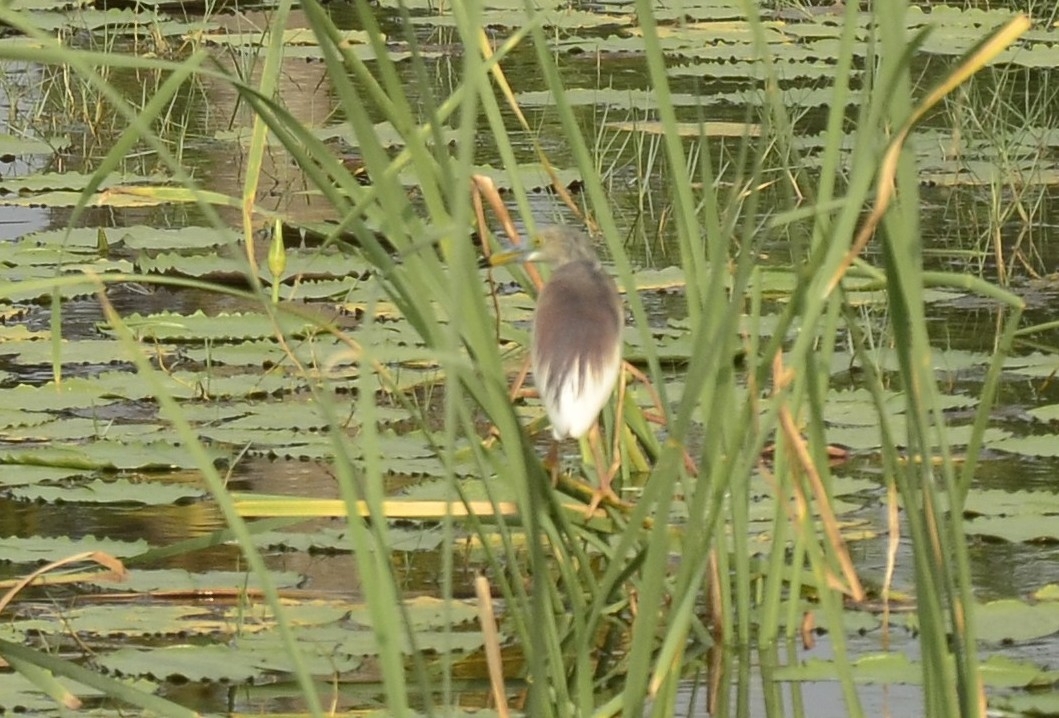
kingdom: Animalia
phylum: Chordata
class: Aves
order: Pelecaniformes
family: Ardeidae
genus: Ardeola
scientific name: Ardeola grayii
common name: Indian pond heron
